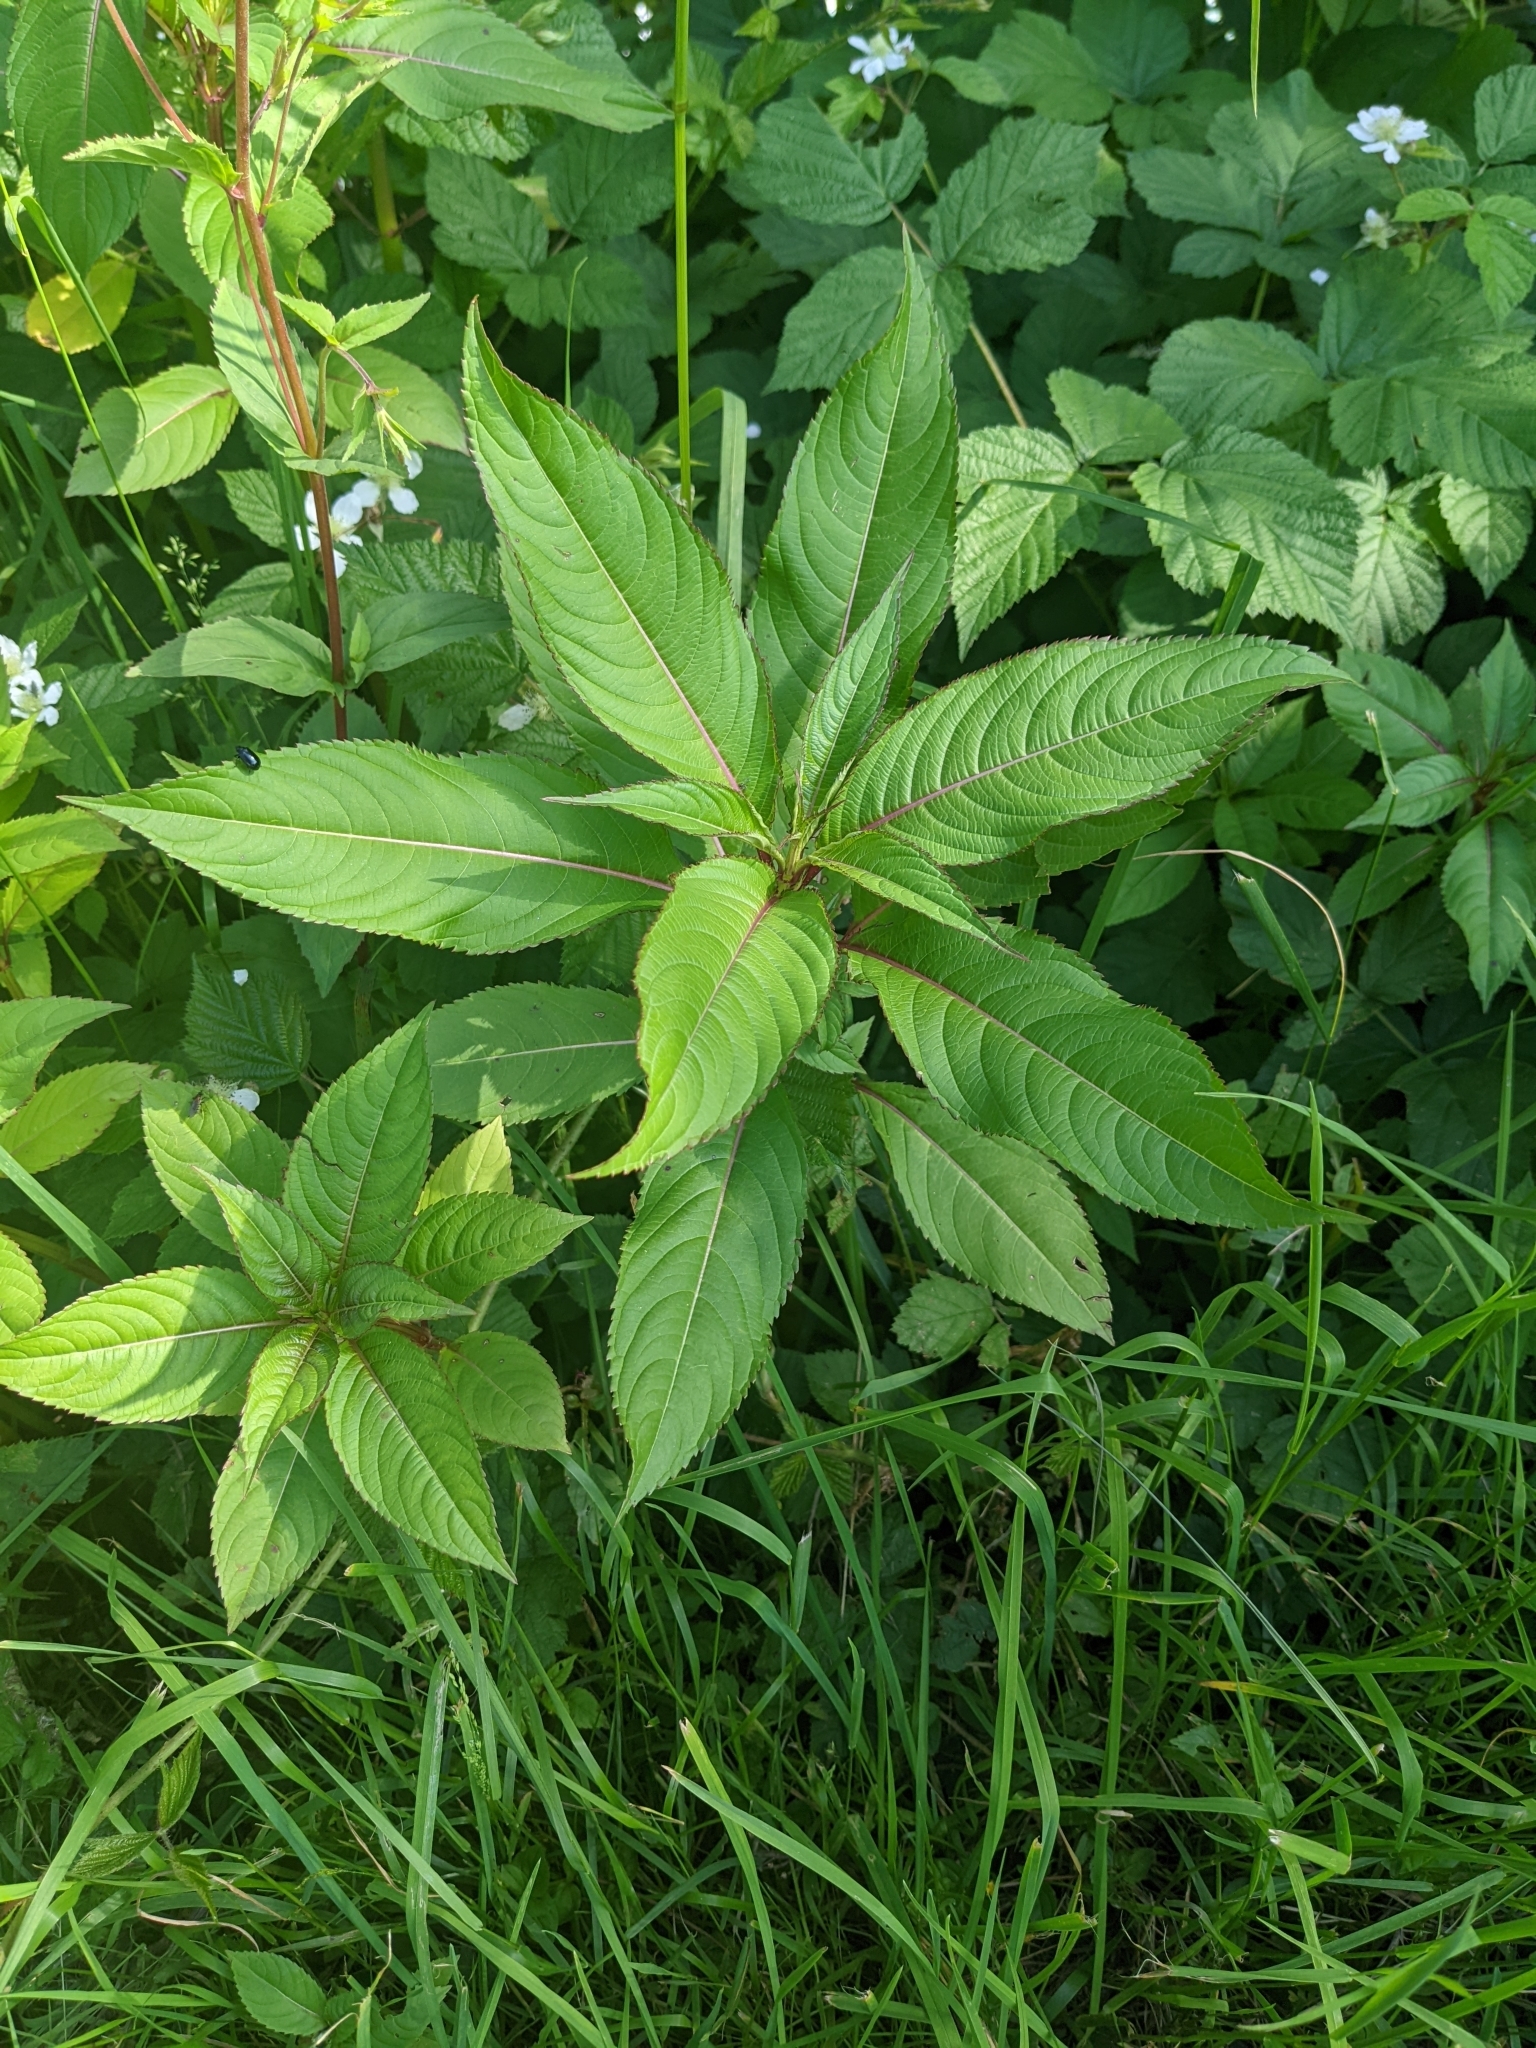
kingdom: Plantae
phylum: Tracheophyta
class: Magnoliopsida
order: Ericales
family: Balsaminaceae
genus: Impatiens
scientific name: Impatiens glandulifera
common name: Himalayan balsam
